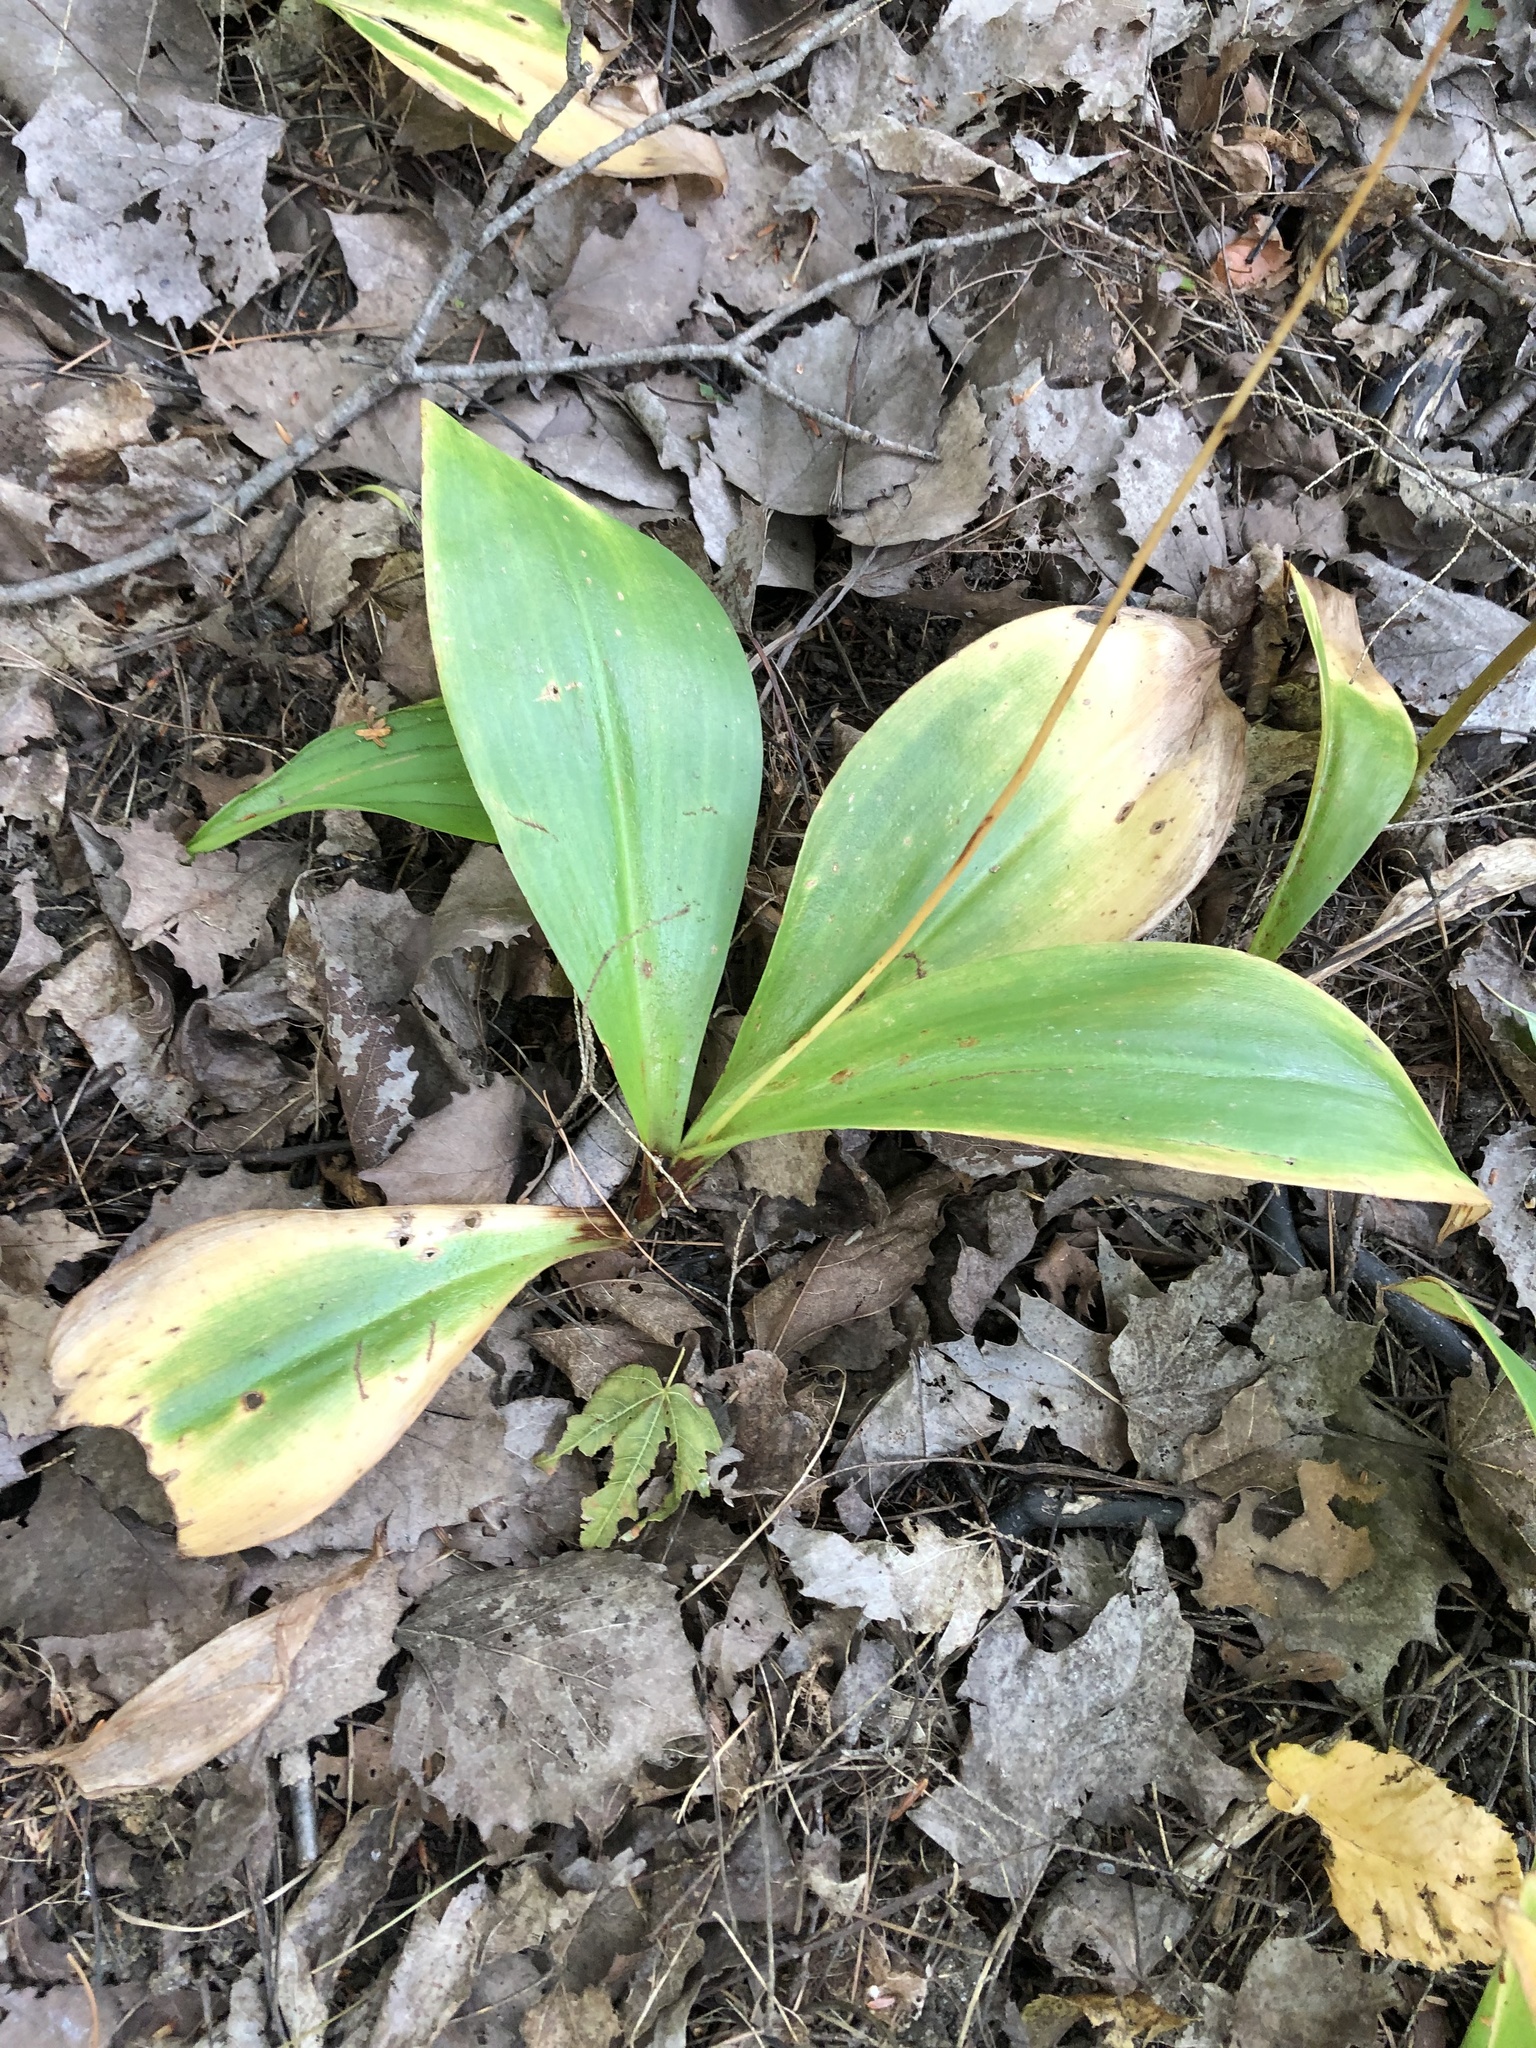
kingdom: Plantae
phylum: Tracheophyta
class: Liliopsida
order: Liliales
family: Liliaceae
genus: Clintonia
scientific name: Clintonia borealis
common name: Yellow clintonia
